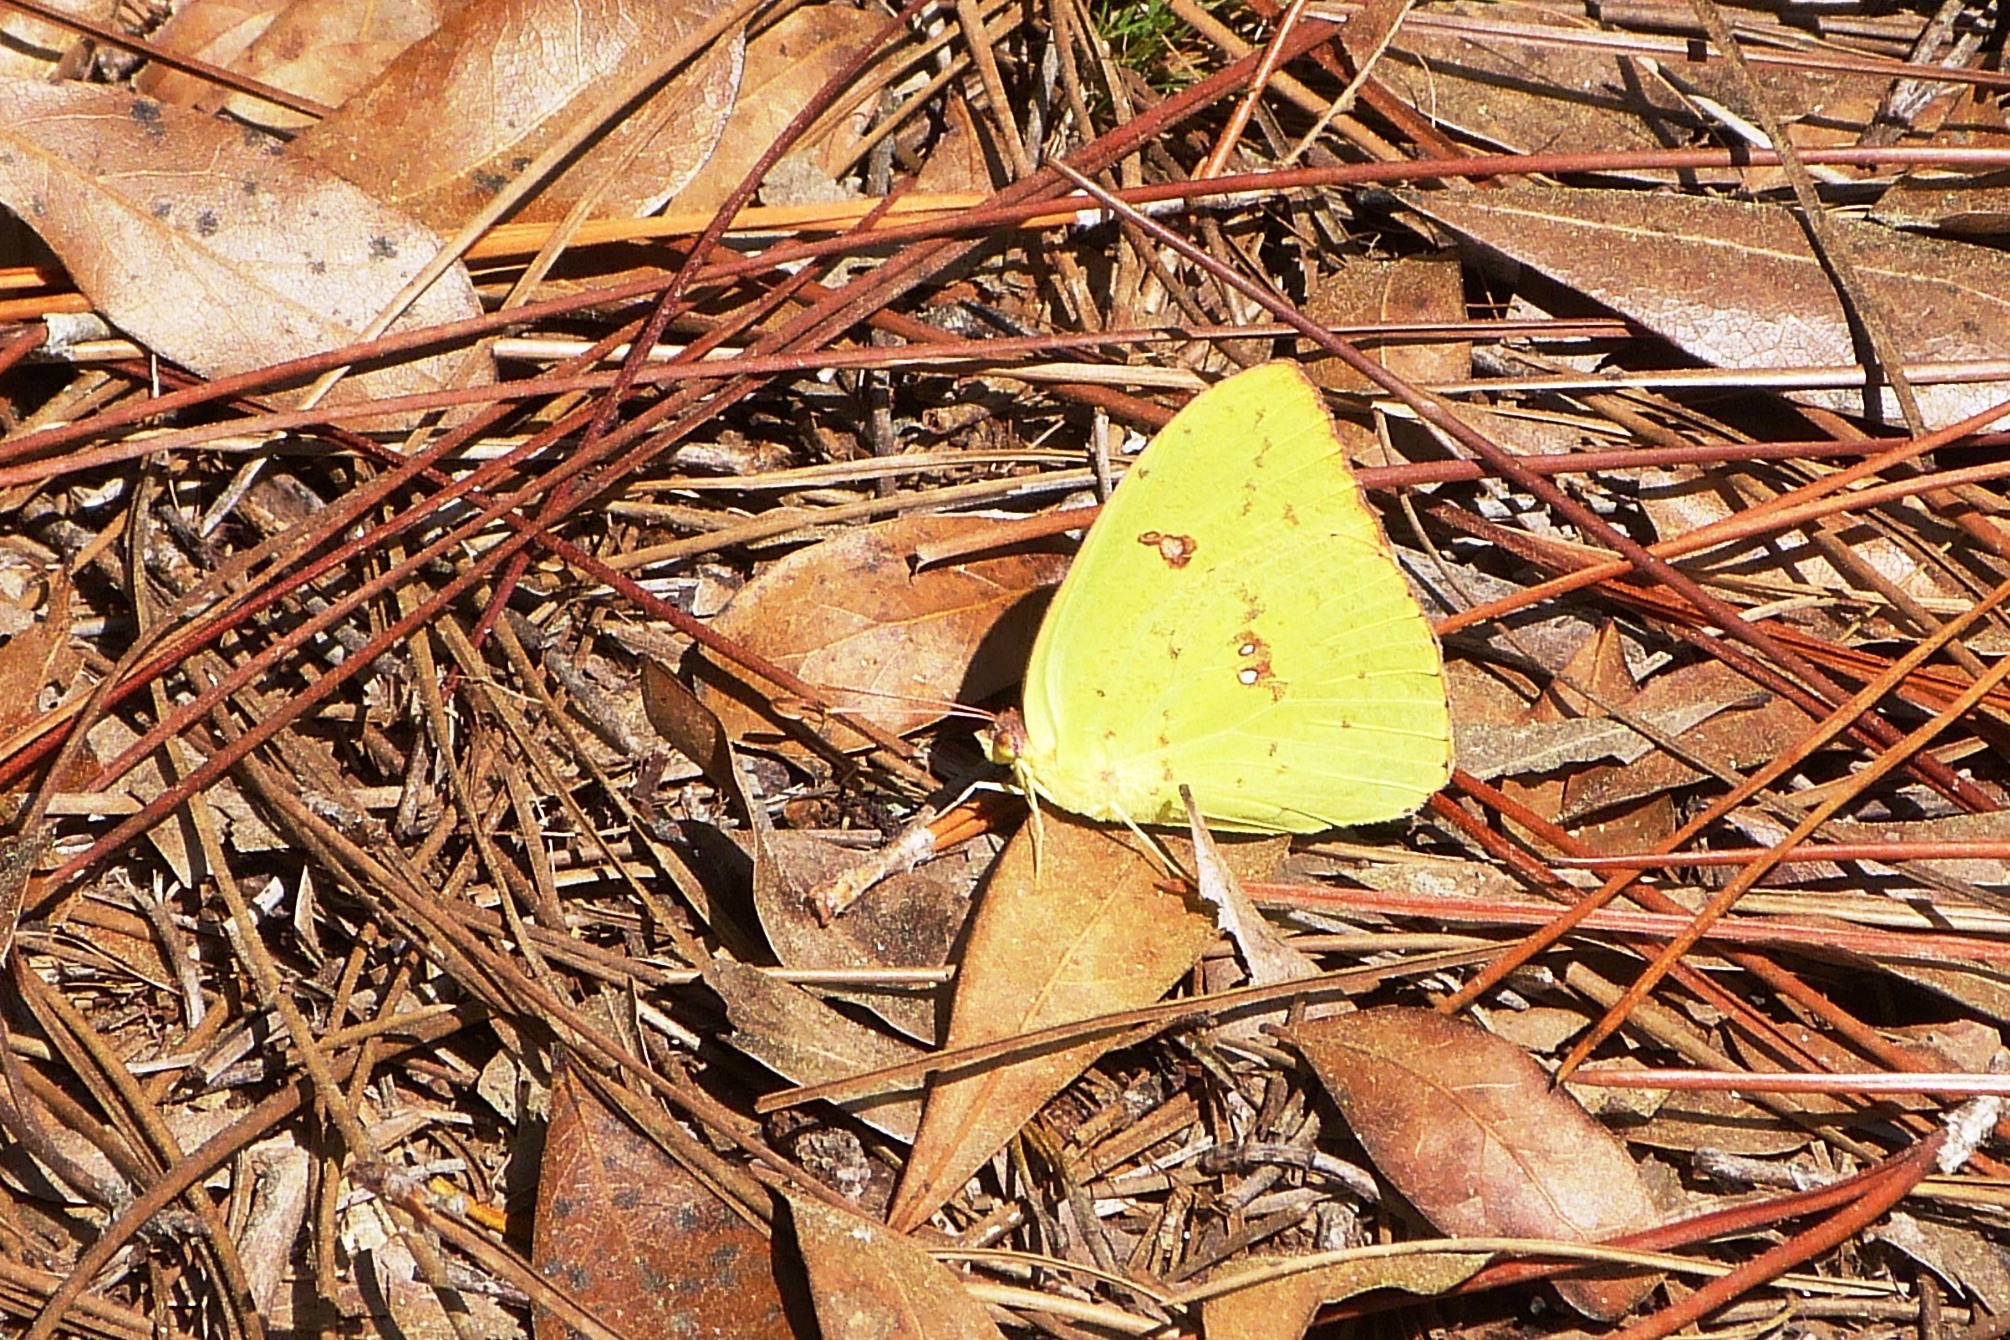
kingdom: Animalia
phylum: Arthropoda
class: Insecta
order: Lepidoptera
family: Pieridae
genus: Phoebis
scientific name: Phoebis sennae
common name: Cloudless sulphur
